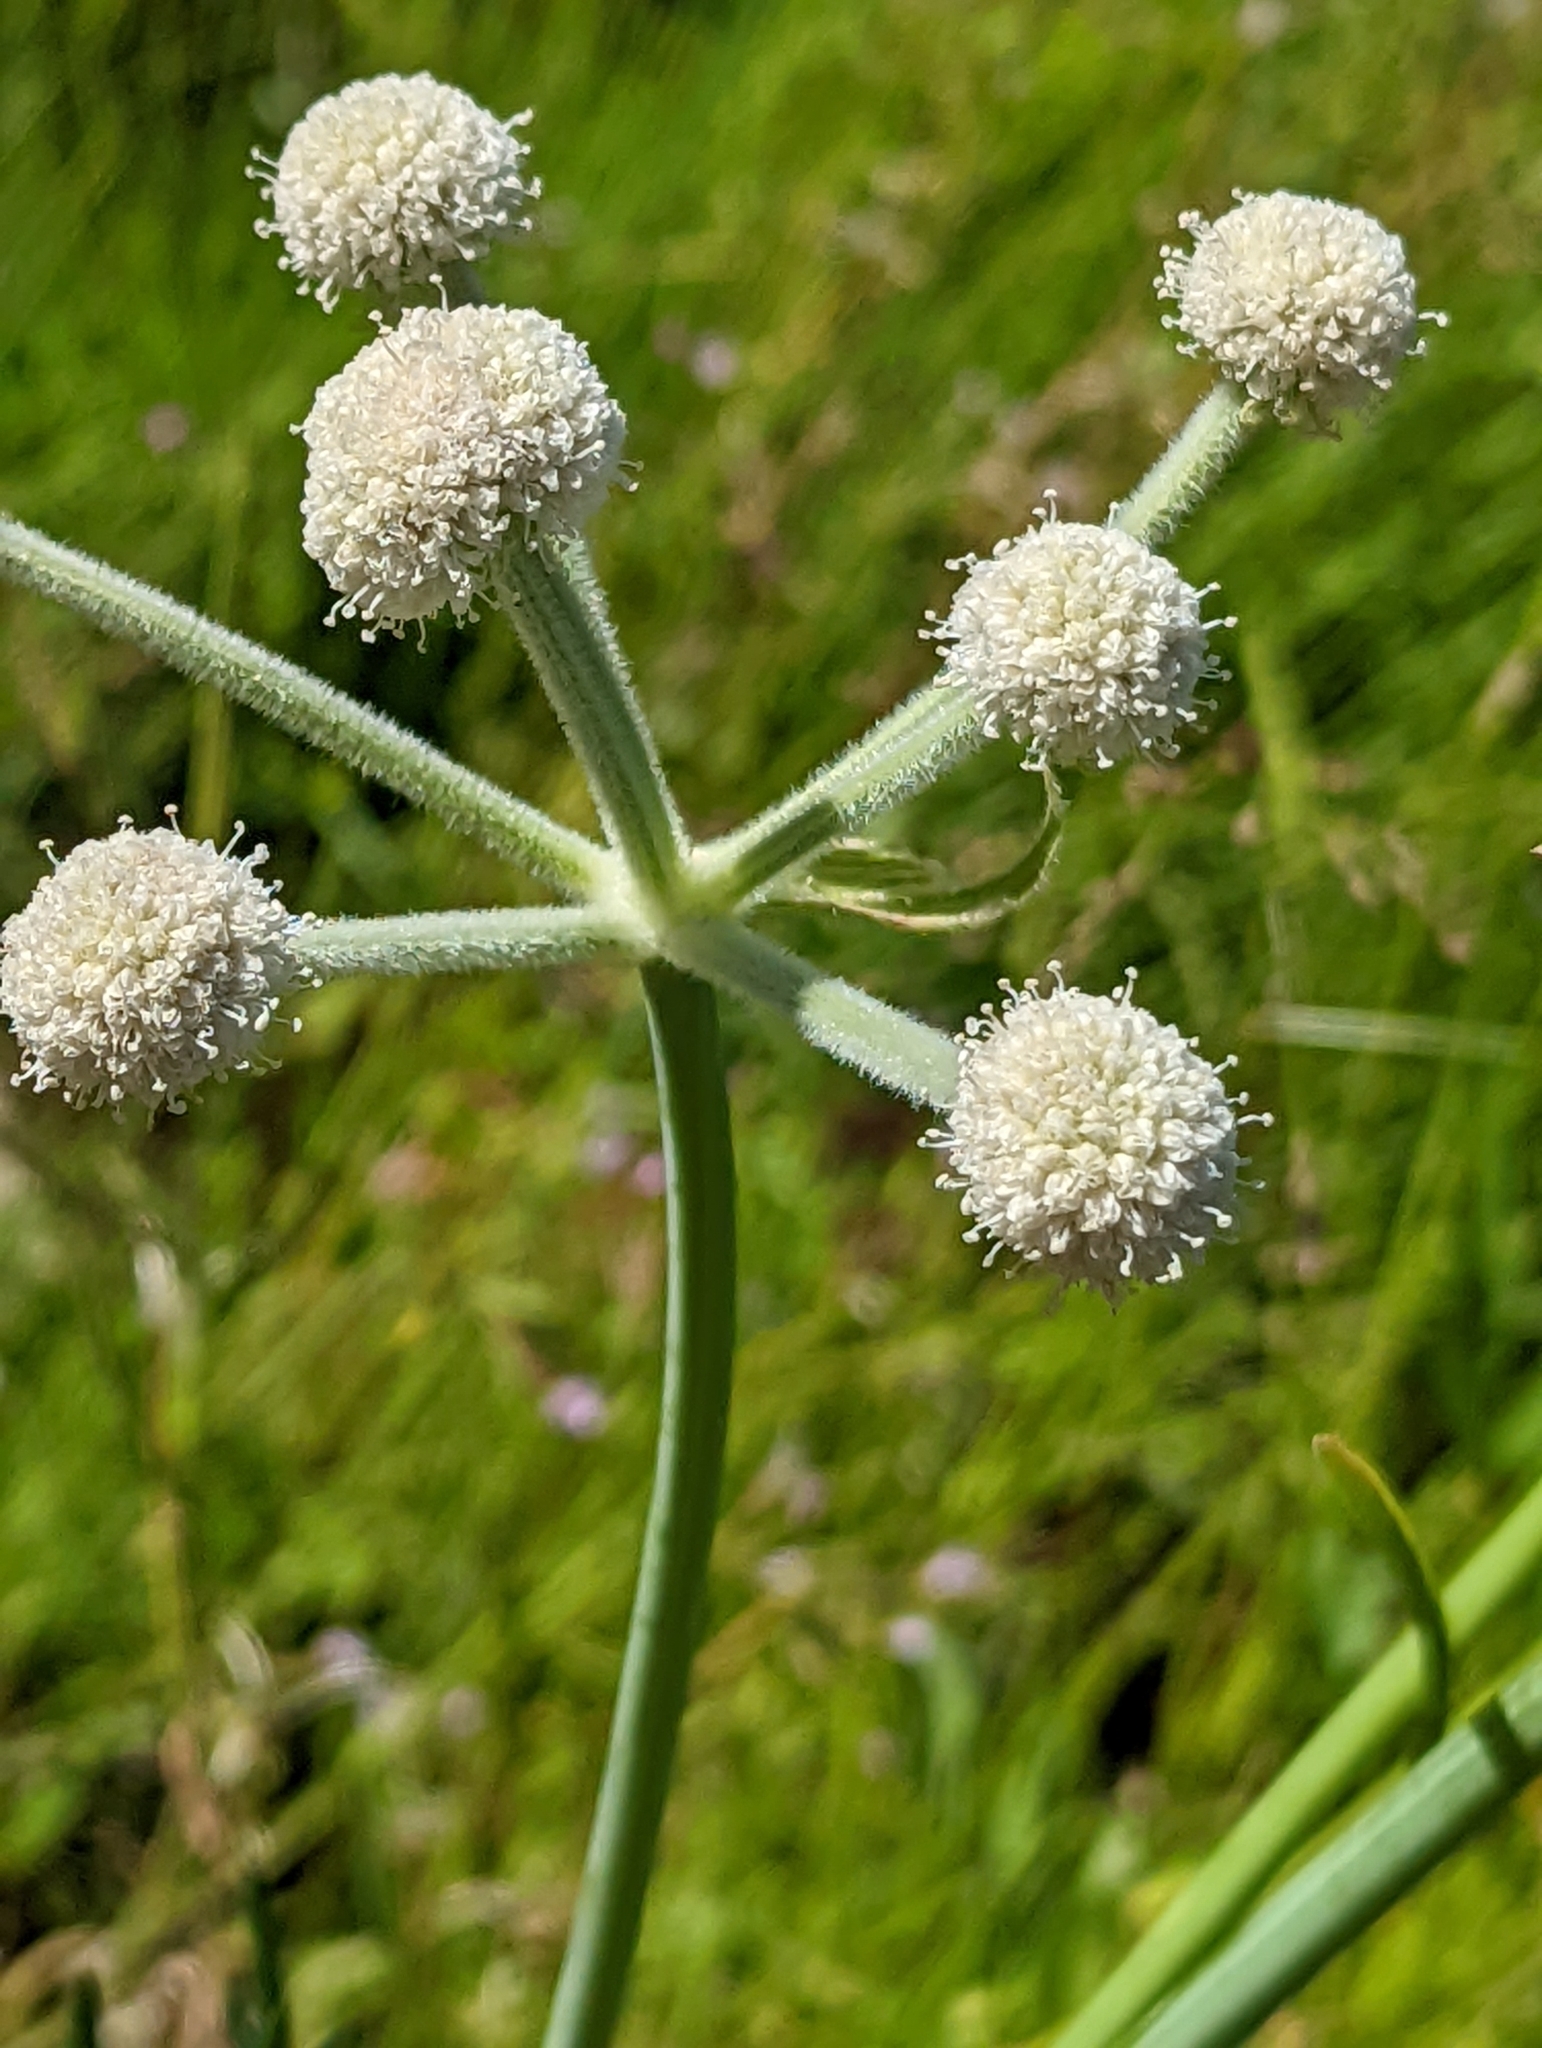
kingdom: Plantae
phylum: Tracheophyta
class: Magnoliopsida
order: Apiales
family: Apiaceae
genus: Angelica
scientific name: Angelica capitellata
